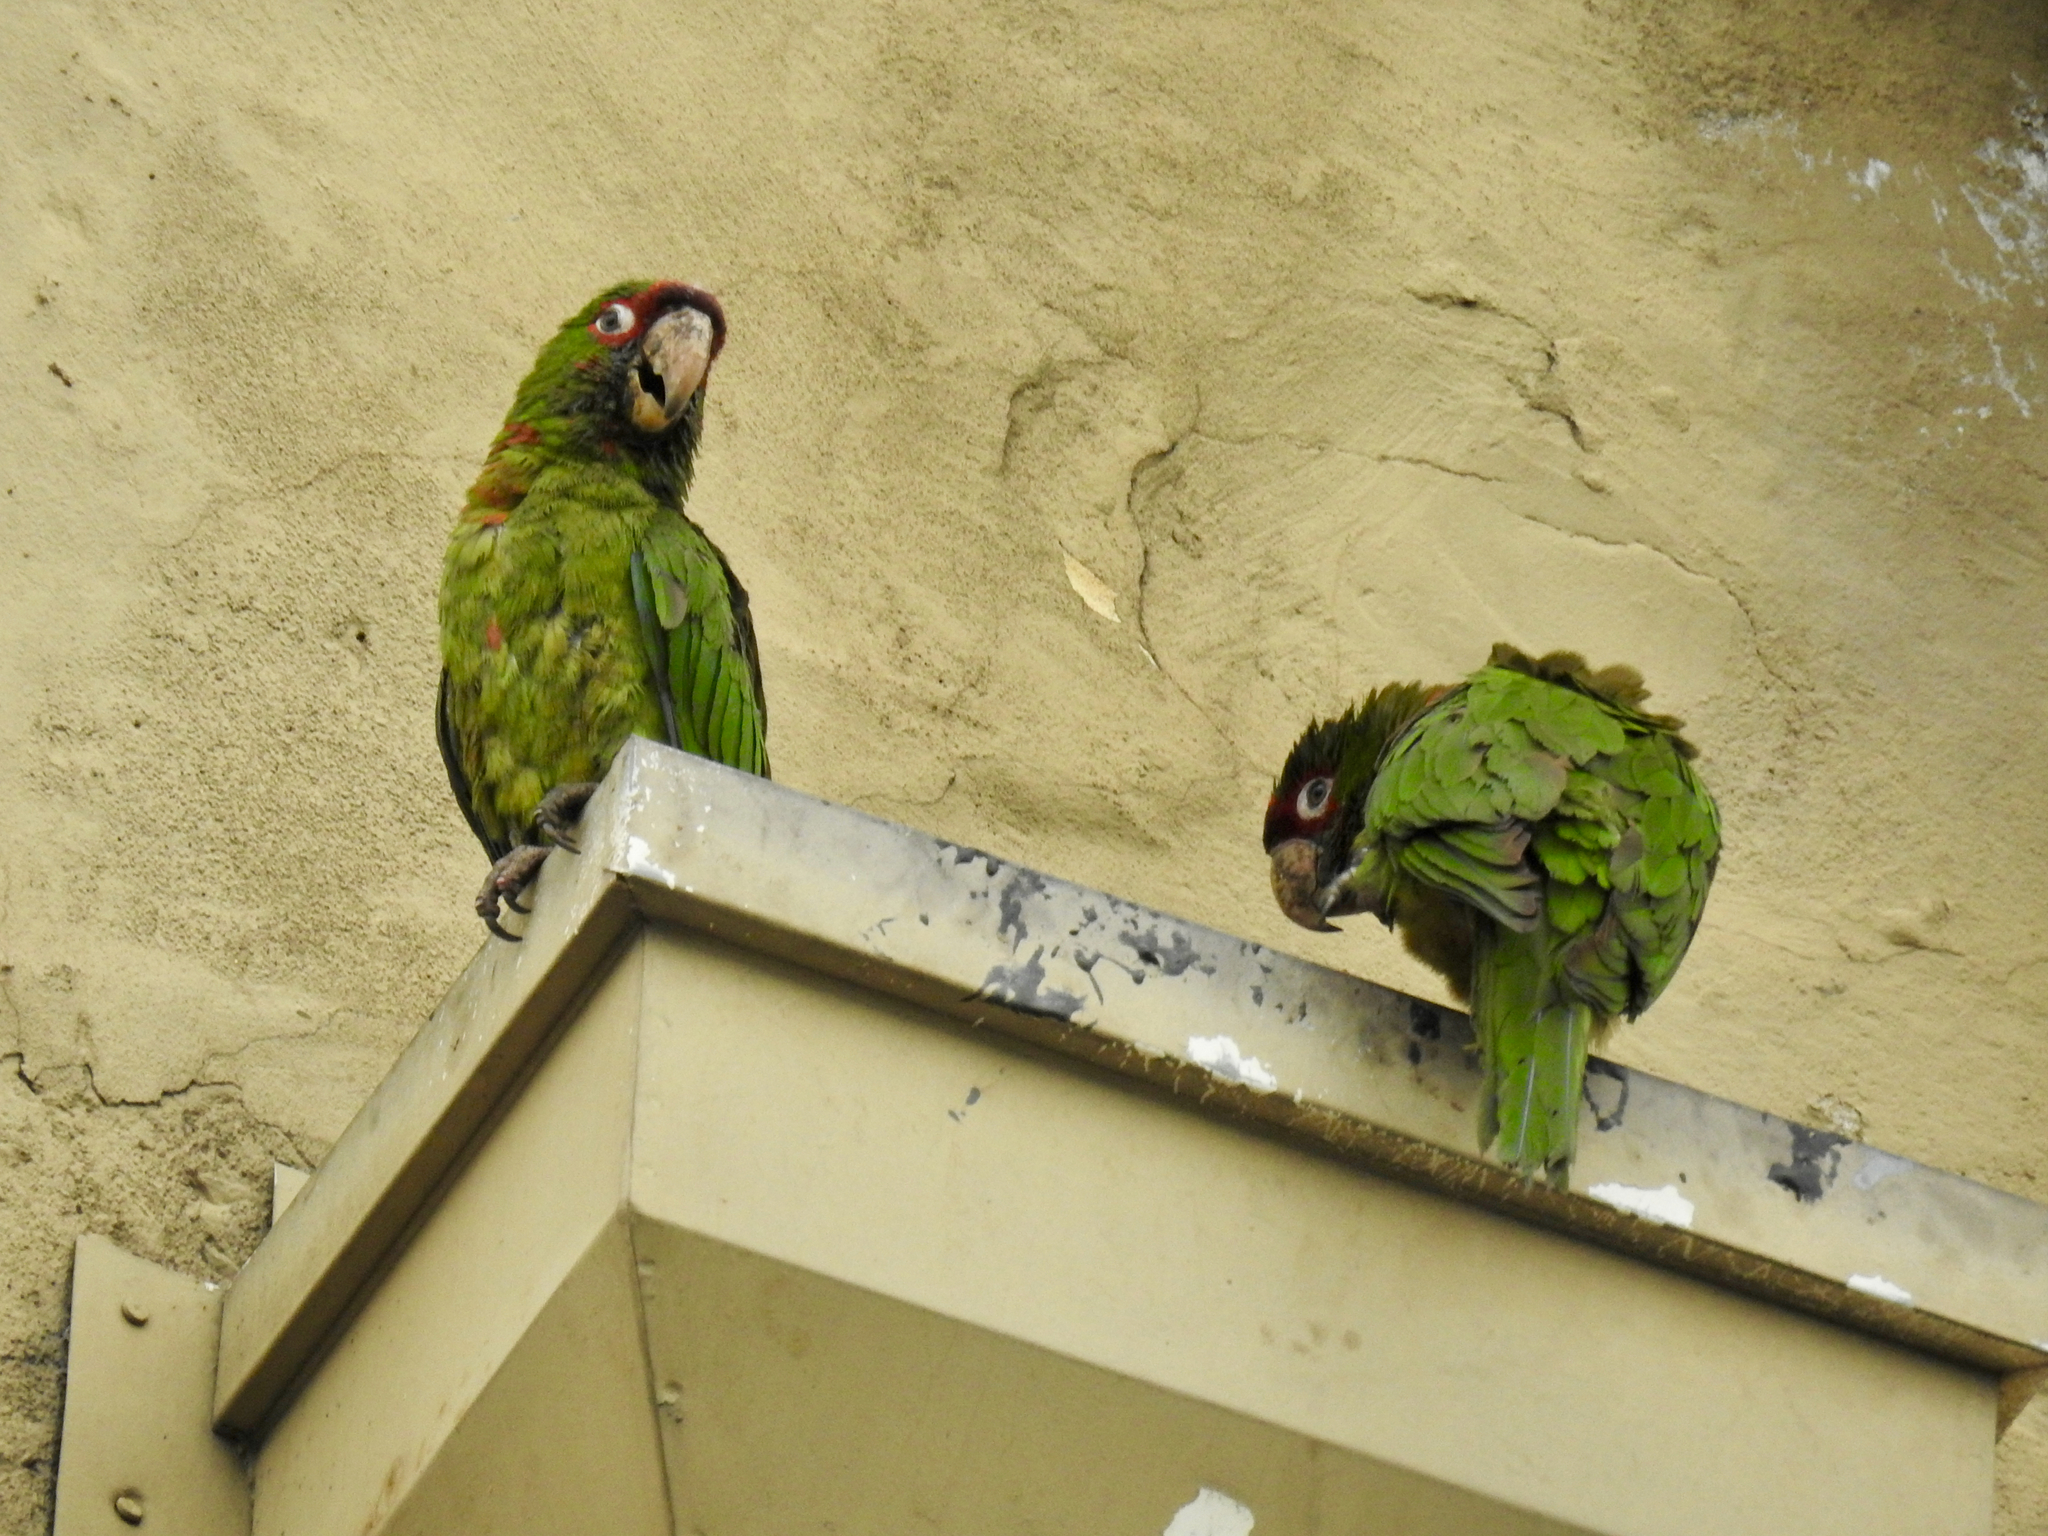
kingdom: Animalia
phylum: Chordata
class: Aves
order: Psittaciformes
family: Psittacidae
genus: Aratinga
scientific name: Aratinga mitrata
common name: Mitred parakeet
